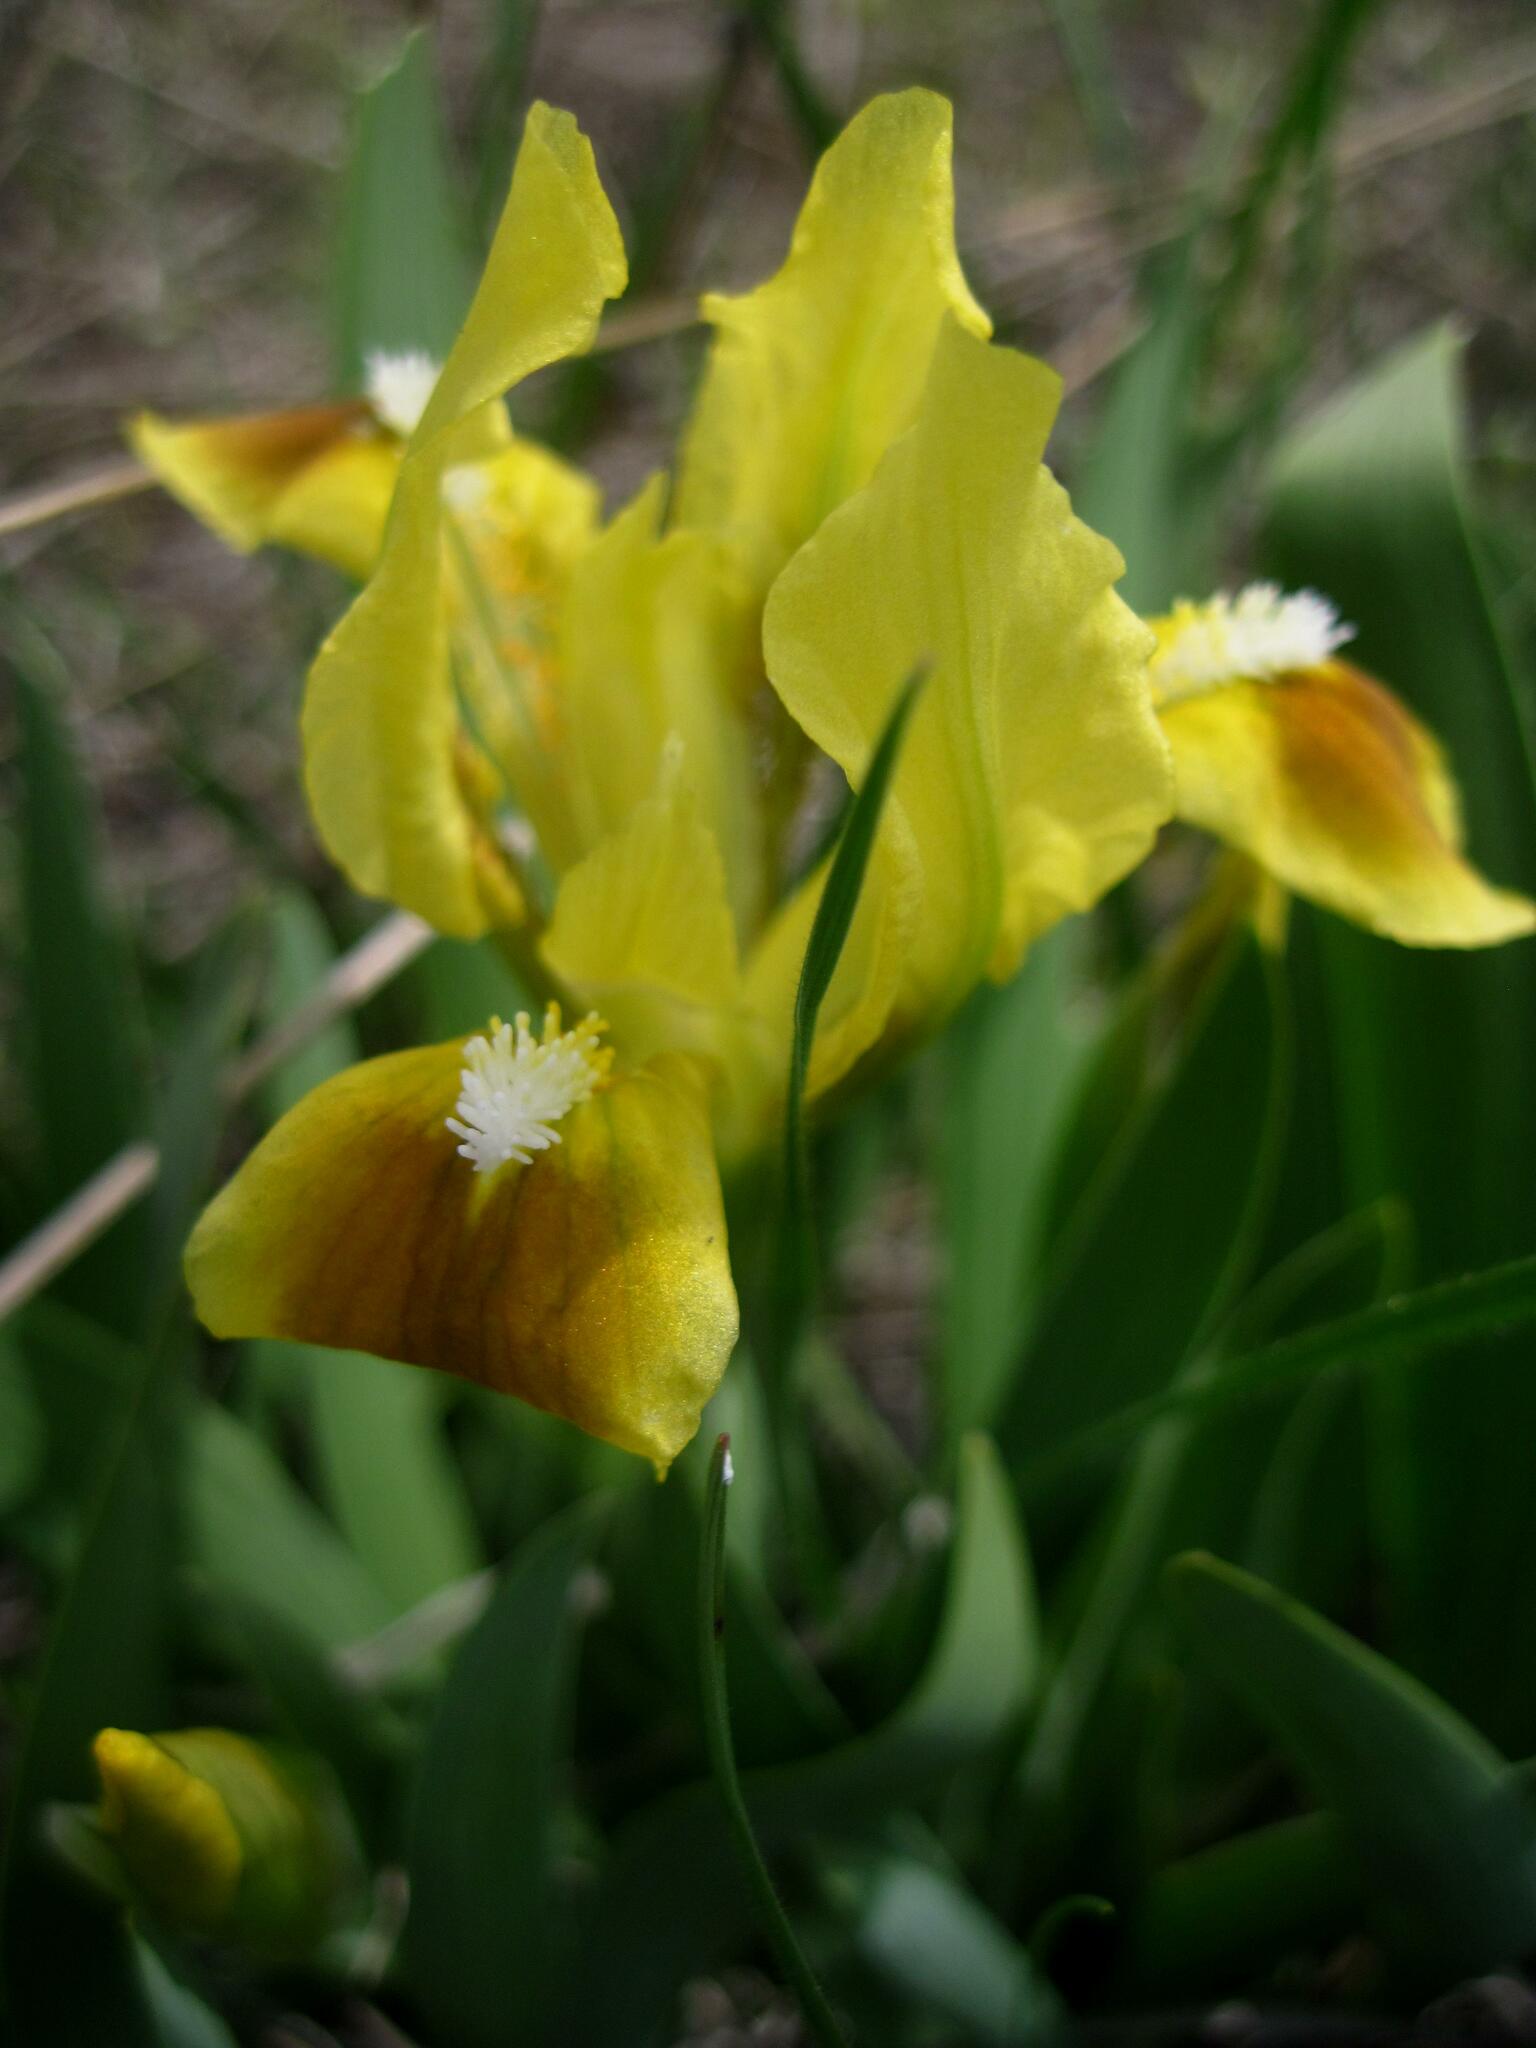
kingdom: Plantae
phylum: Tracheophyta
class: Liliopsida
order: Asparagales
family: Iridaceae
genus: Iris
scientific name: Iris pumila
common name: Dwarf iris
